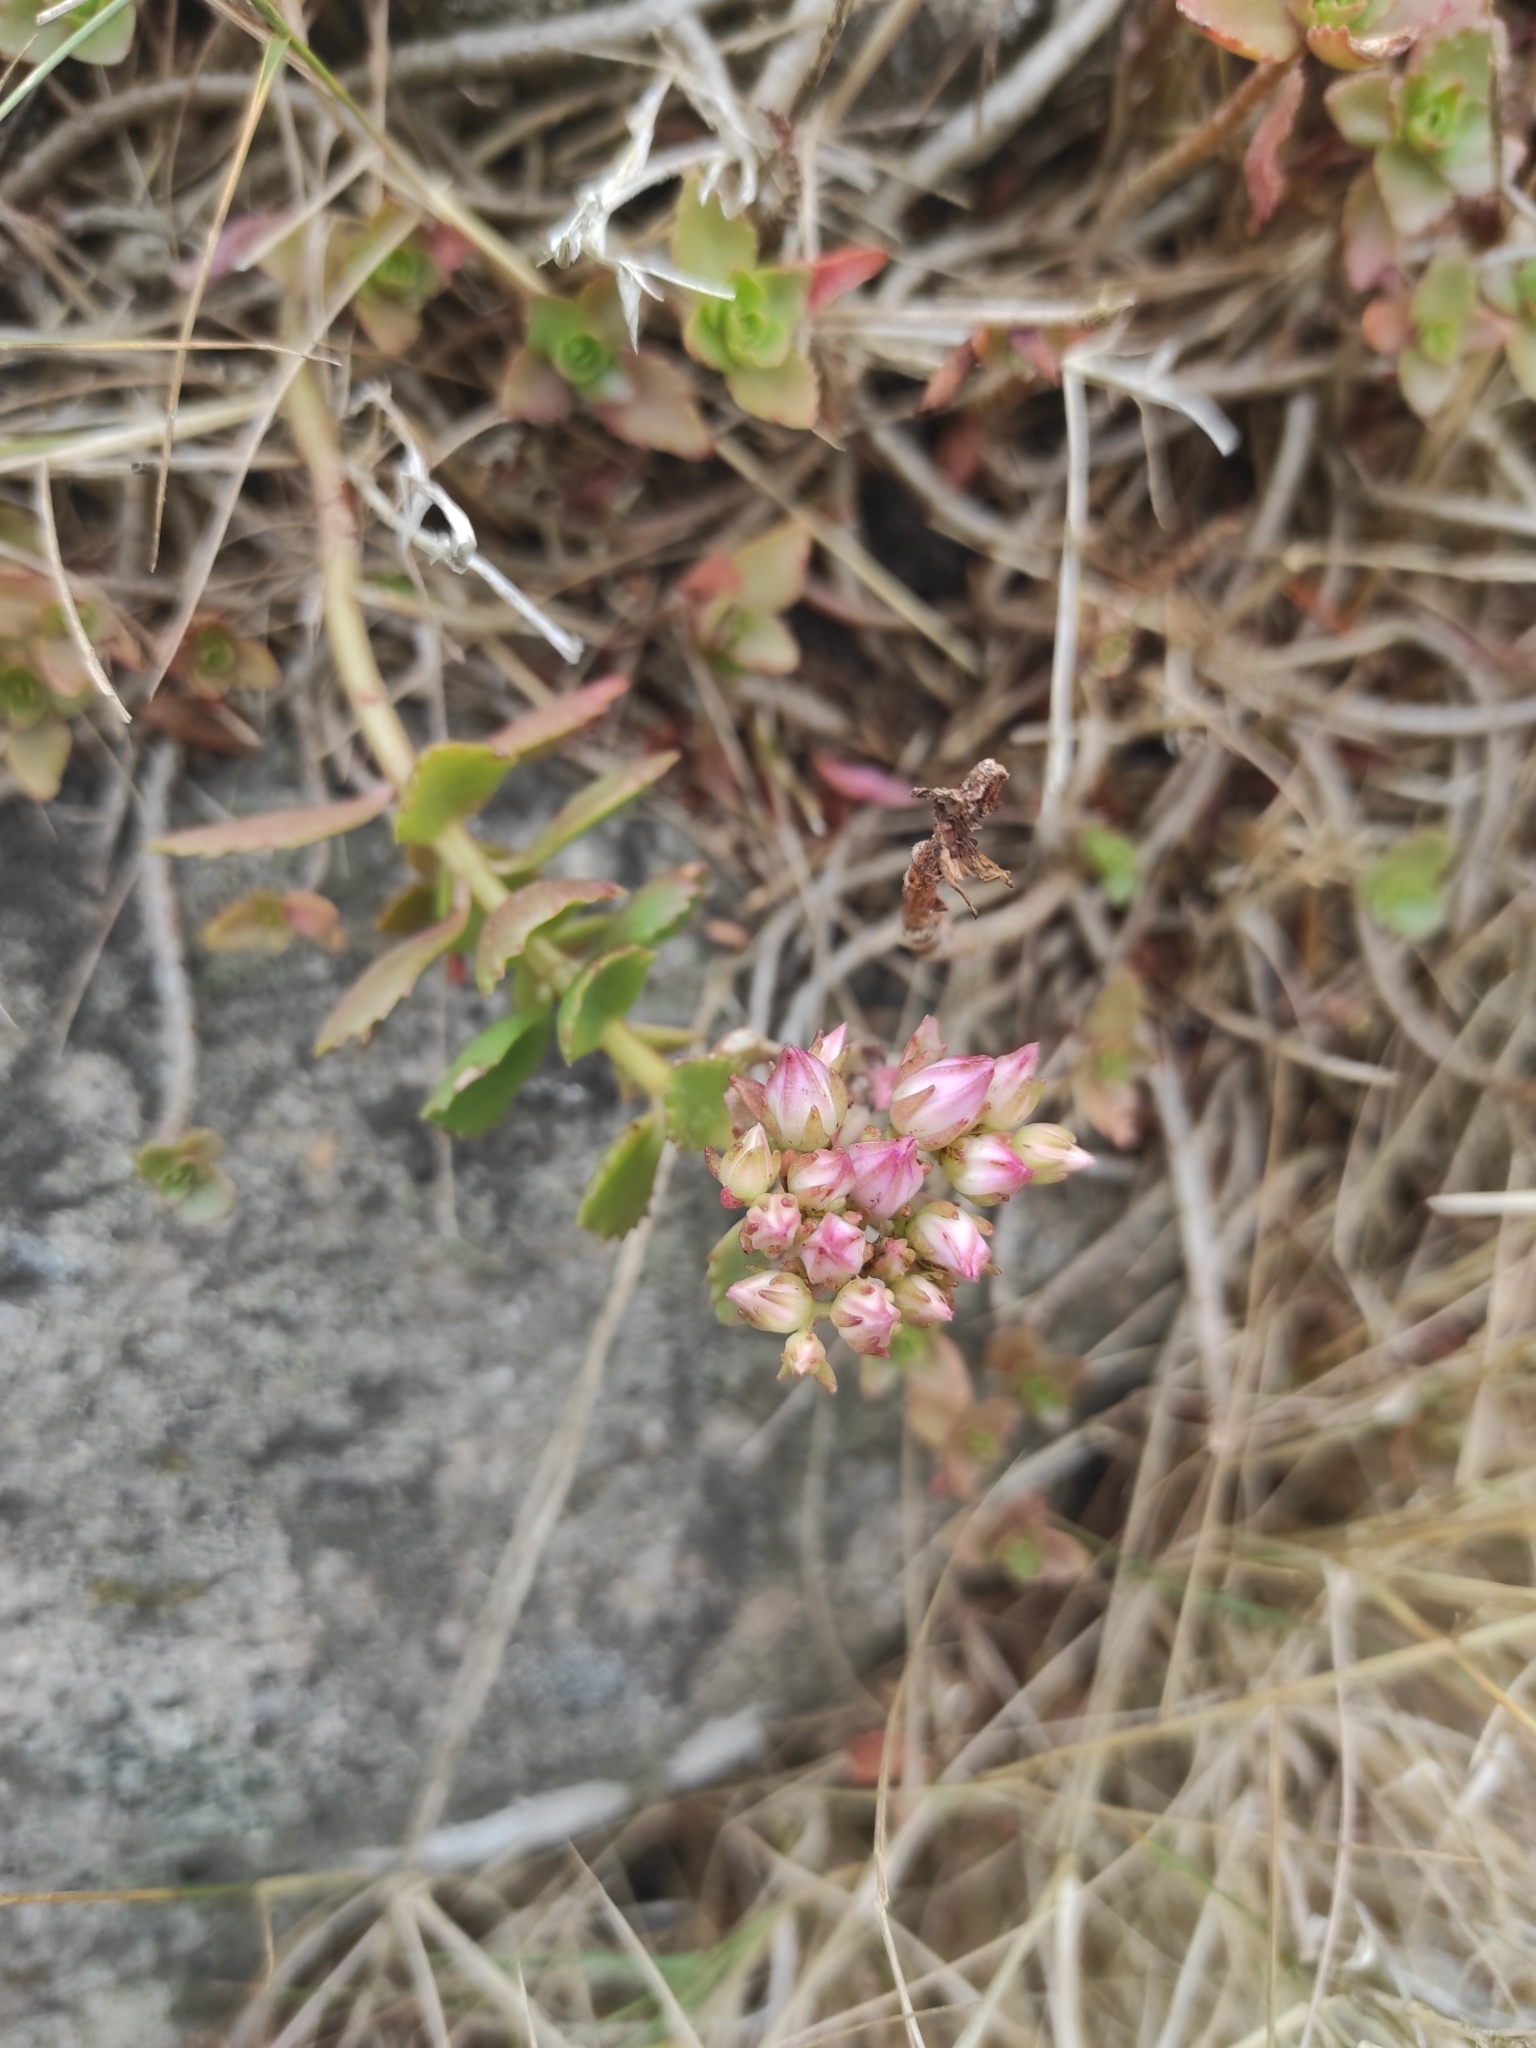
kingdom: Plantae
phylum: Tracheophyta
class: Magnoliopsida
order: Saxifragales
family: Crassulaceae
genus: Phedimus
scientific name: Phedimus spurius
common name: Caucasian stonecrop
